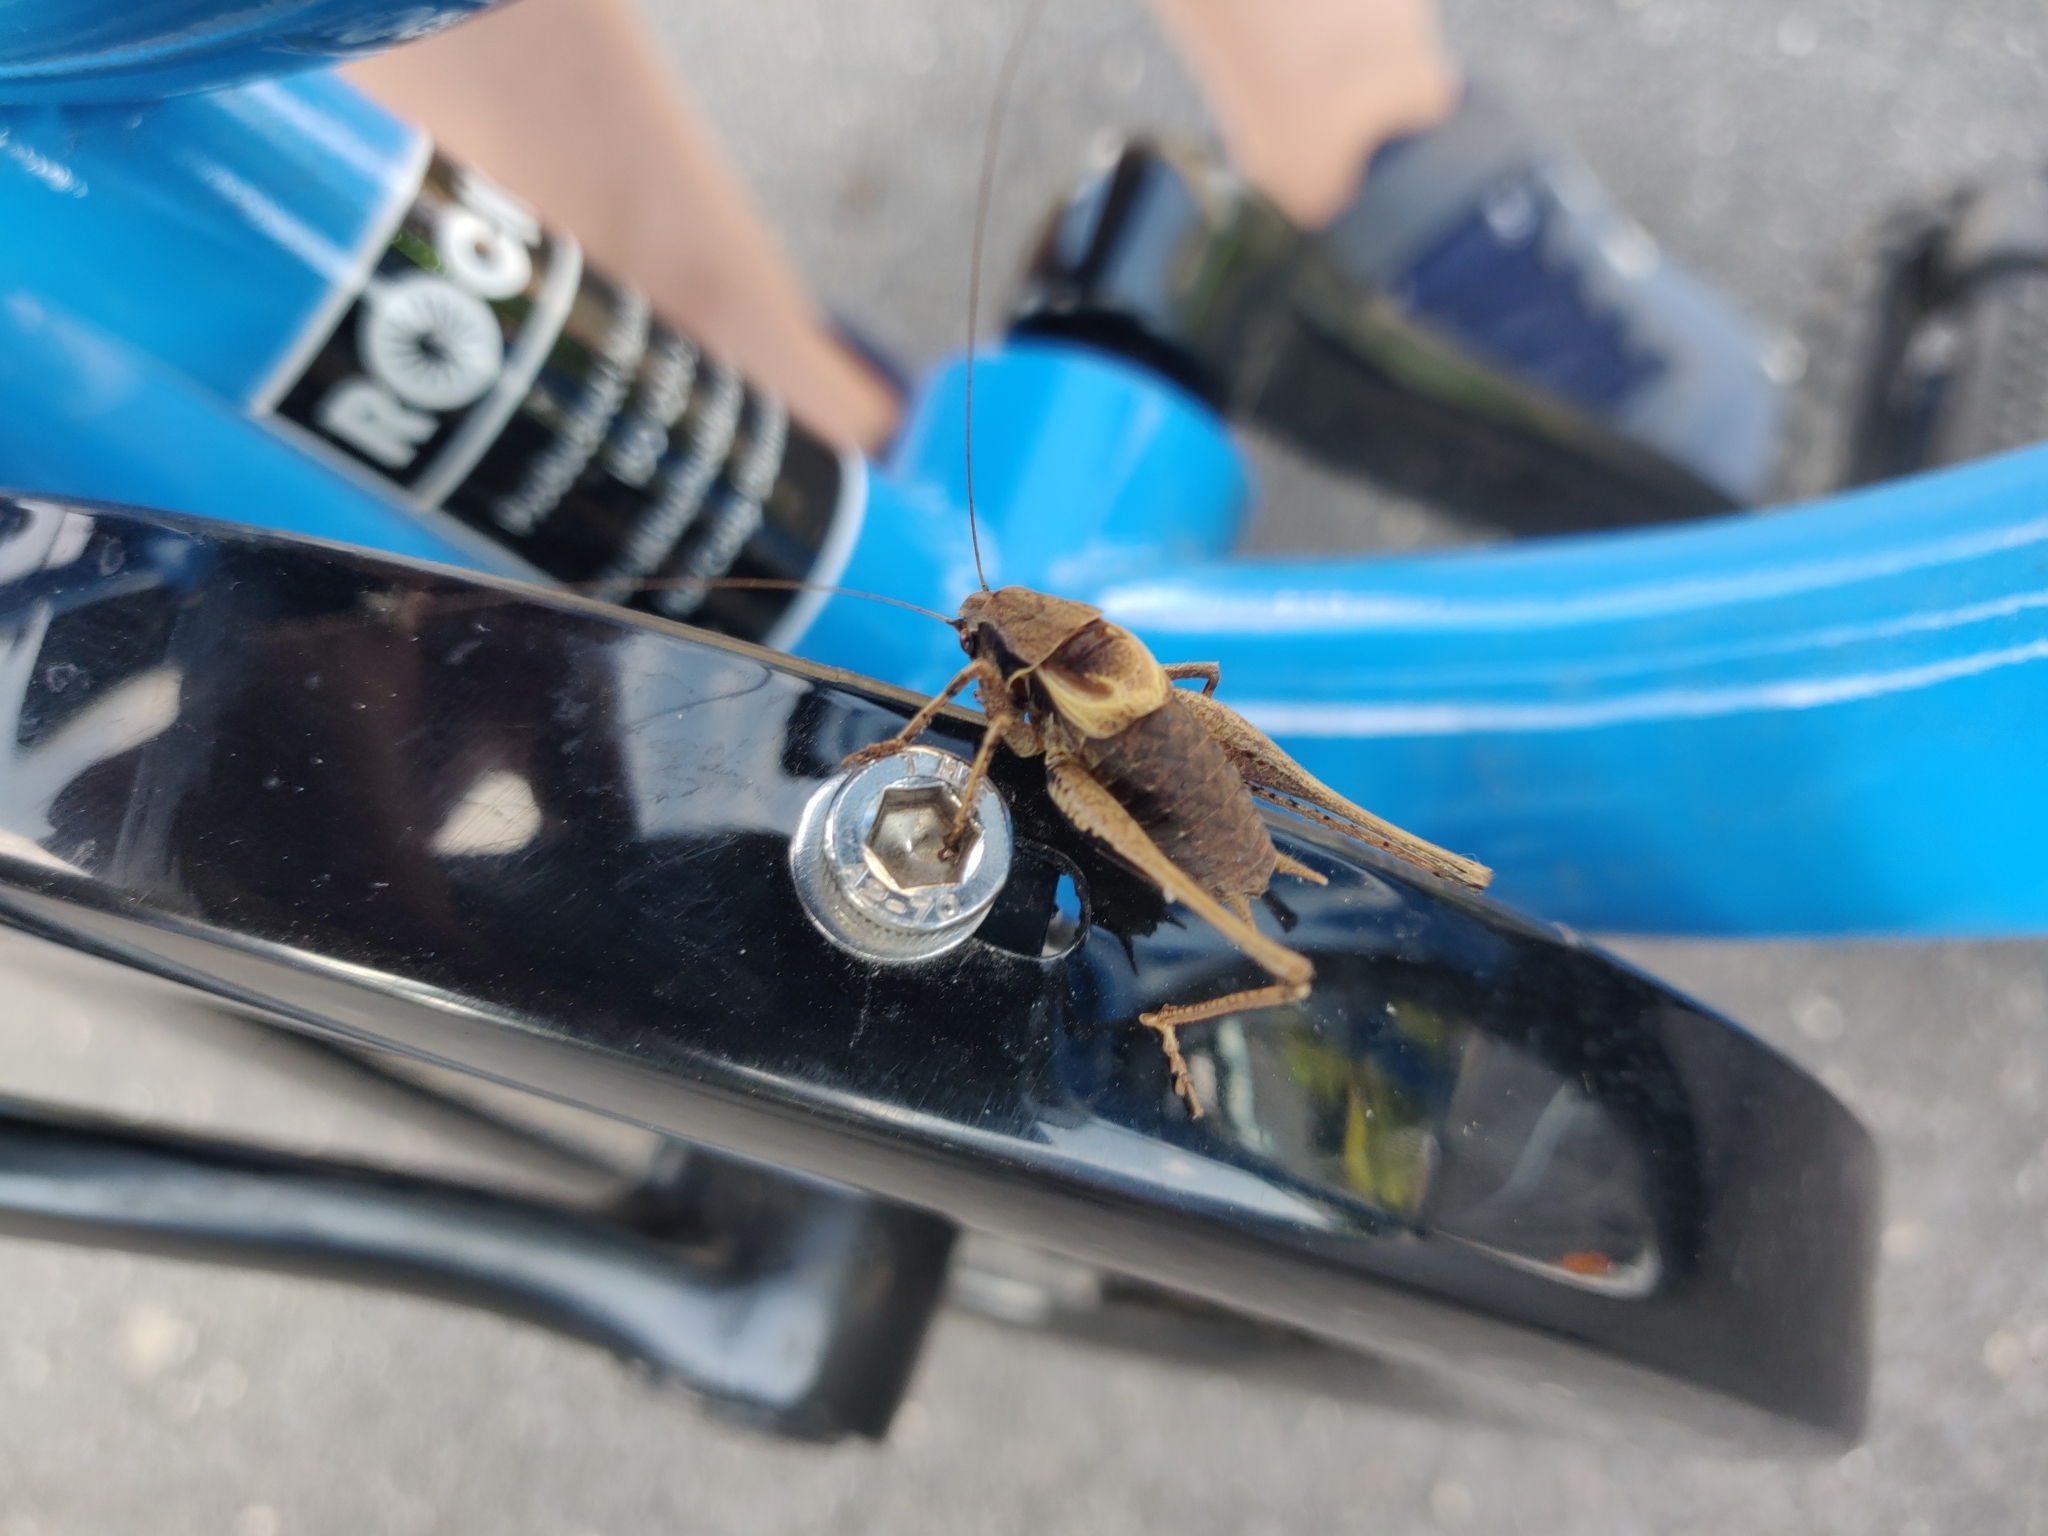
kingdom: Animalia
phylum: Arthropoda
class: Insecta
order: Orthoptera
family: Tettigoniidae
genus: Pholidoptera
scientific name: Pholidoptera griseoaptera
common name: Dark bush-cricket
